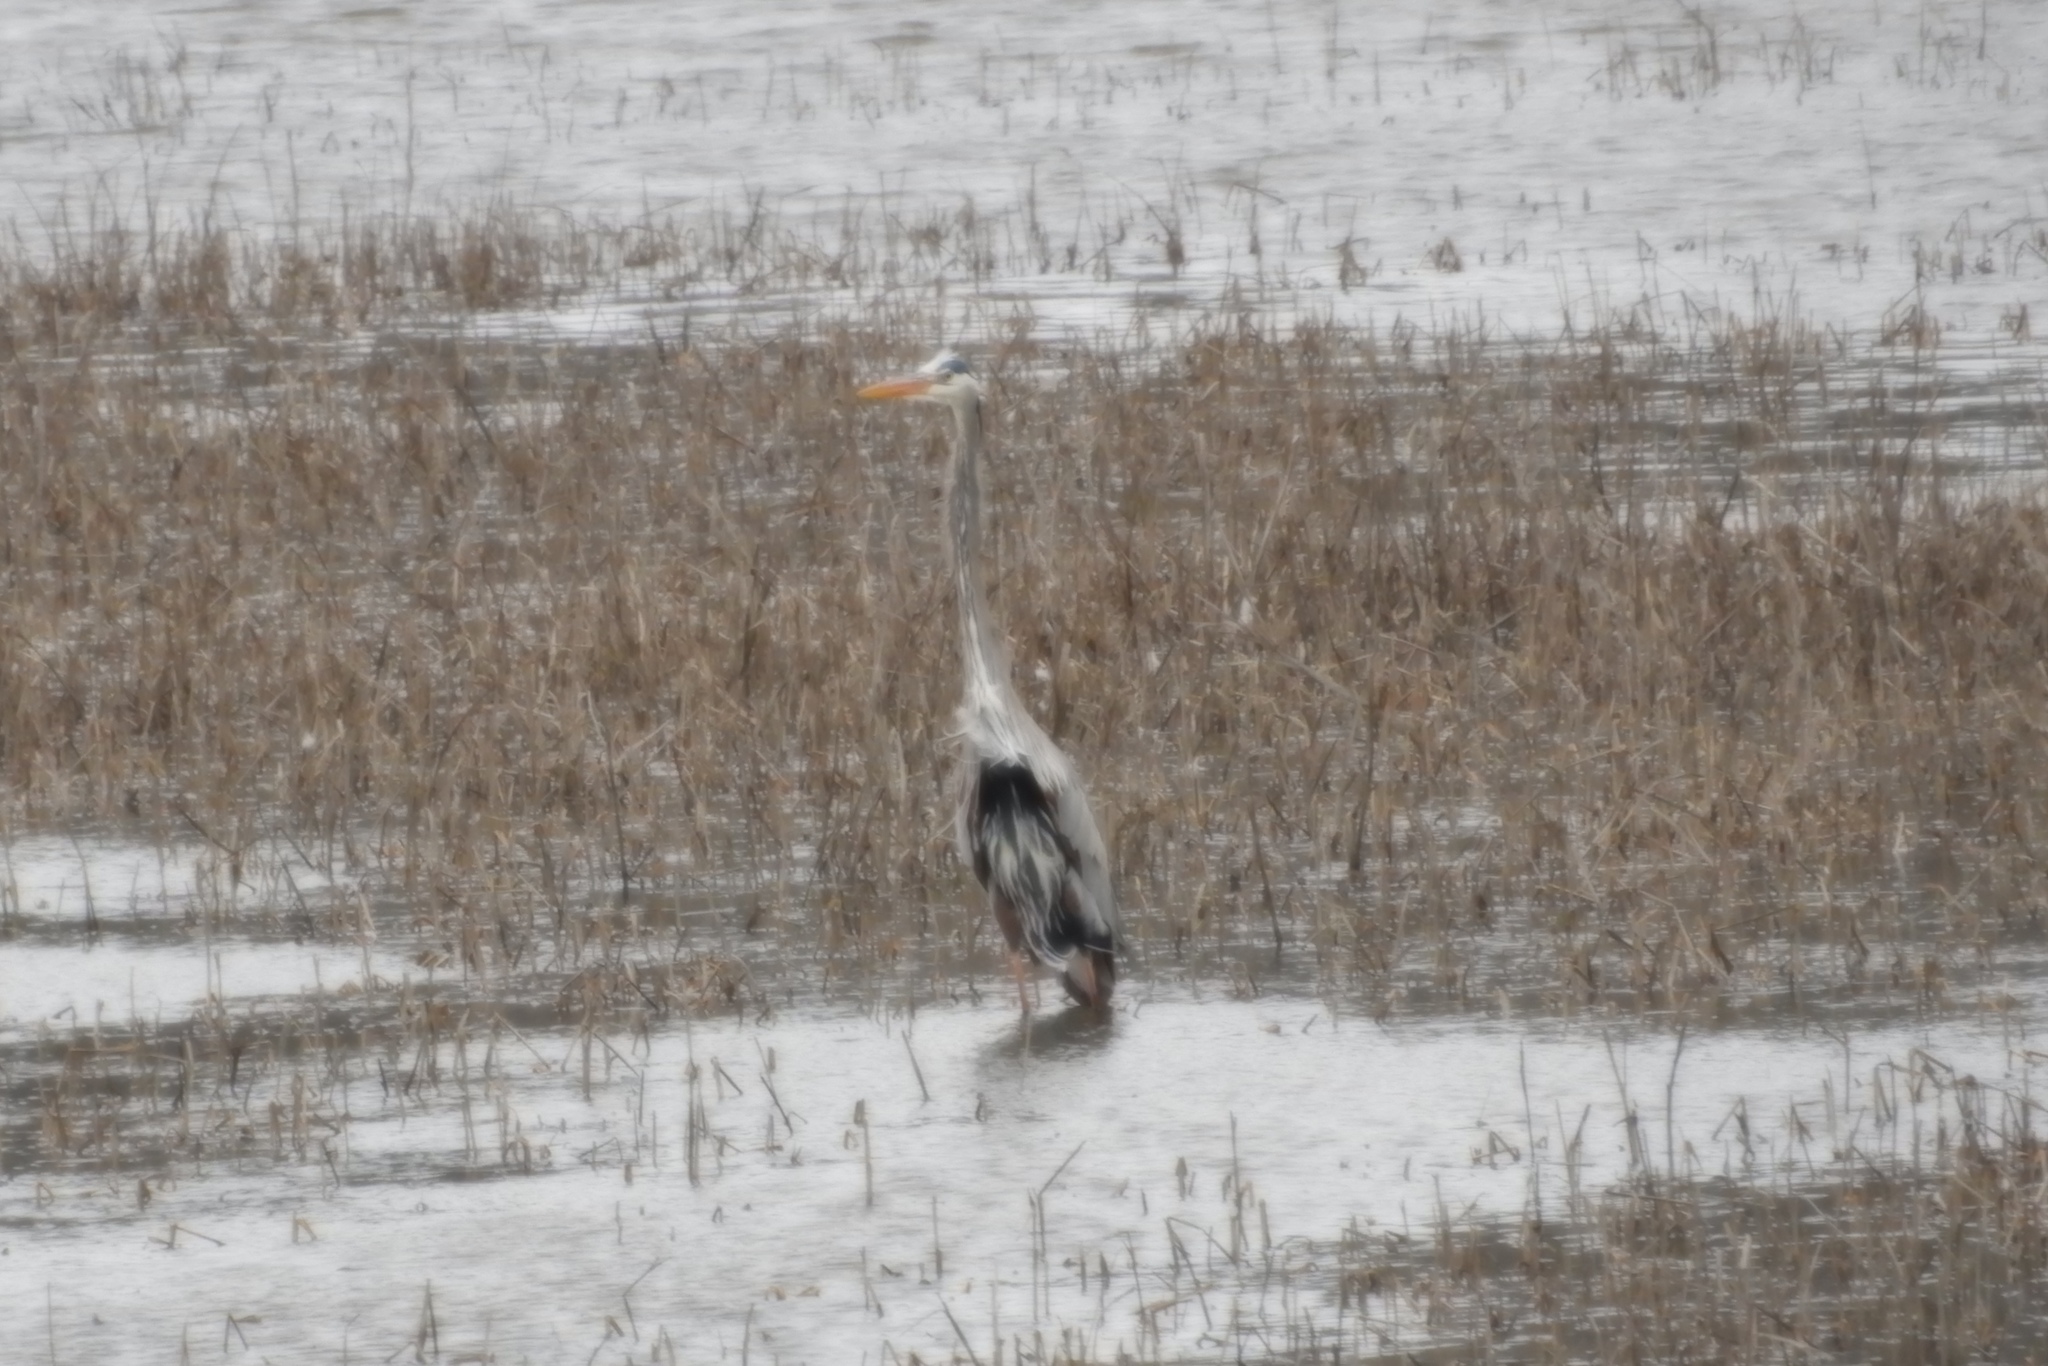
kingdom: Animalia
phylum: Chordata
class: Aves
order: Pelecaniformes
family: Ardeidae
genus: Ardea
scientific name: Ardea herodias
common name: Great blue heron
